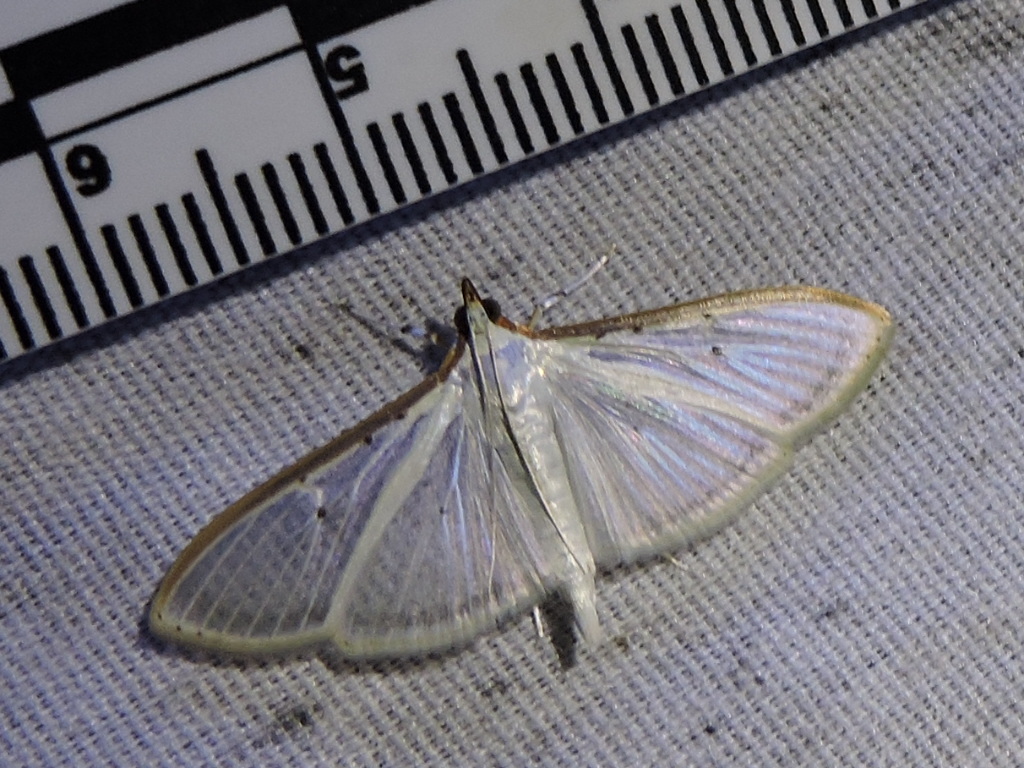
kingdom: Animalia
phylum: Arthropoda
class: Insecta
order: Lepidoptera
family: Crambidae
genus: Palpita
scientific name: Palpita quadristigmalis
